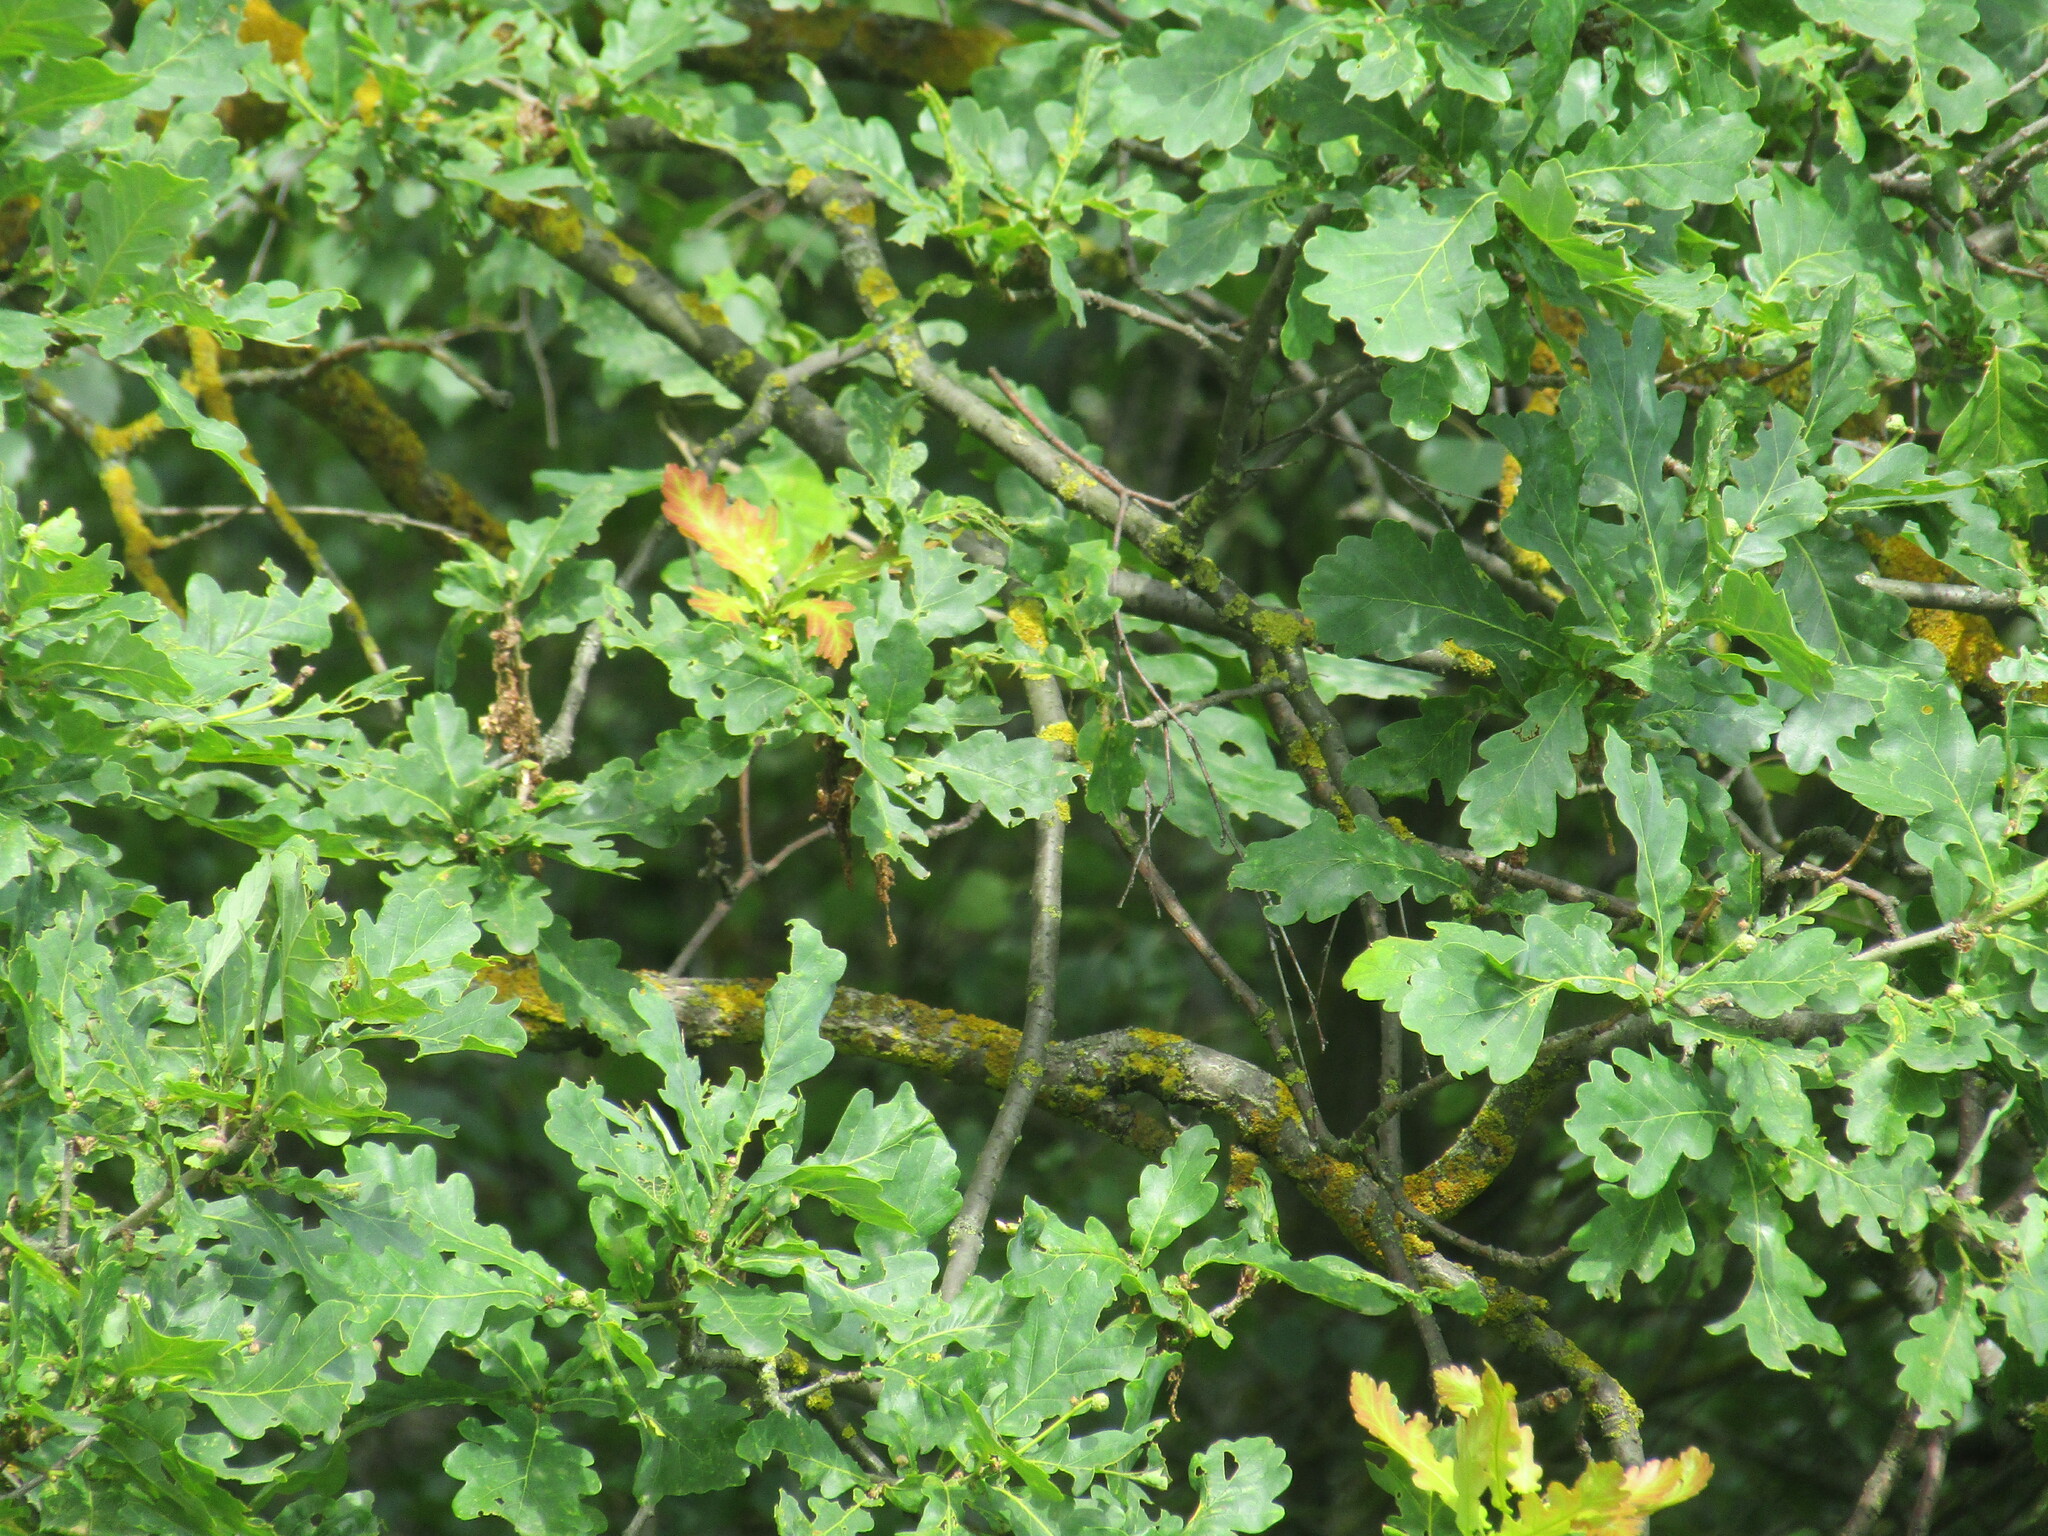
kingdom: Plantae
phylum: Tracheophyta
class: Magnoliopsida
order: Fagales
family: Fagaceae
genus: Quercus
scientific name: Quercus robur
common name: Pedunculate oak
